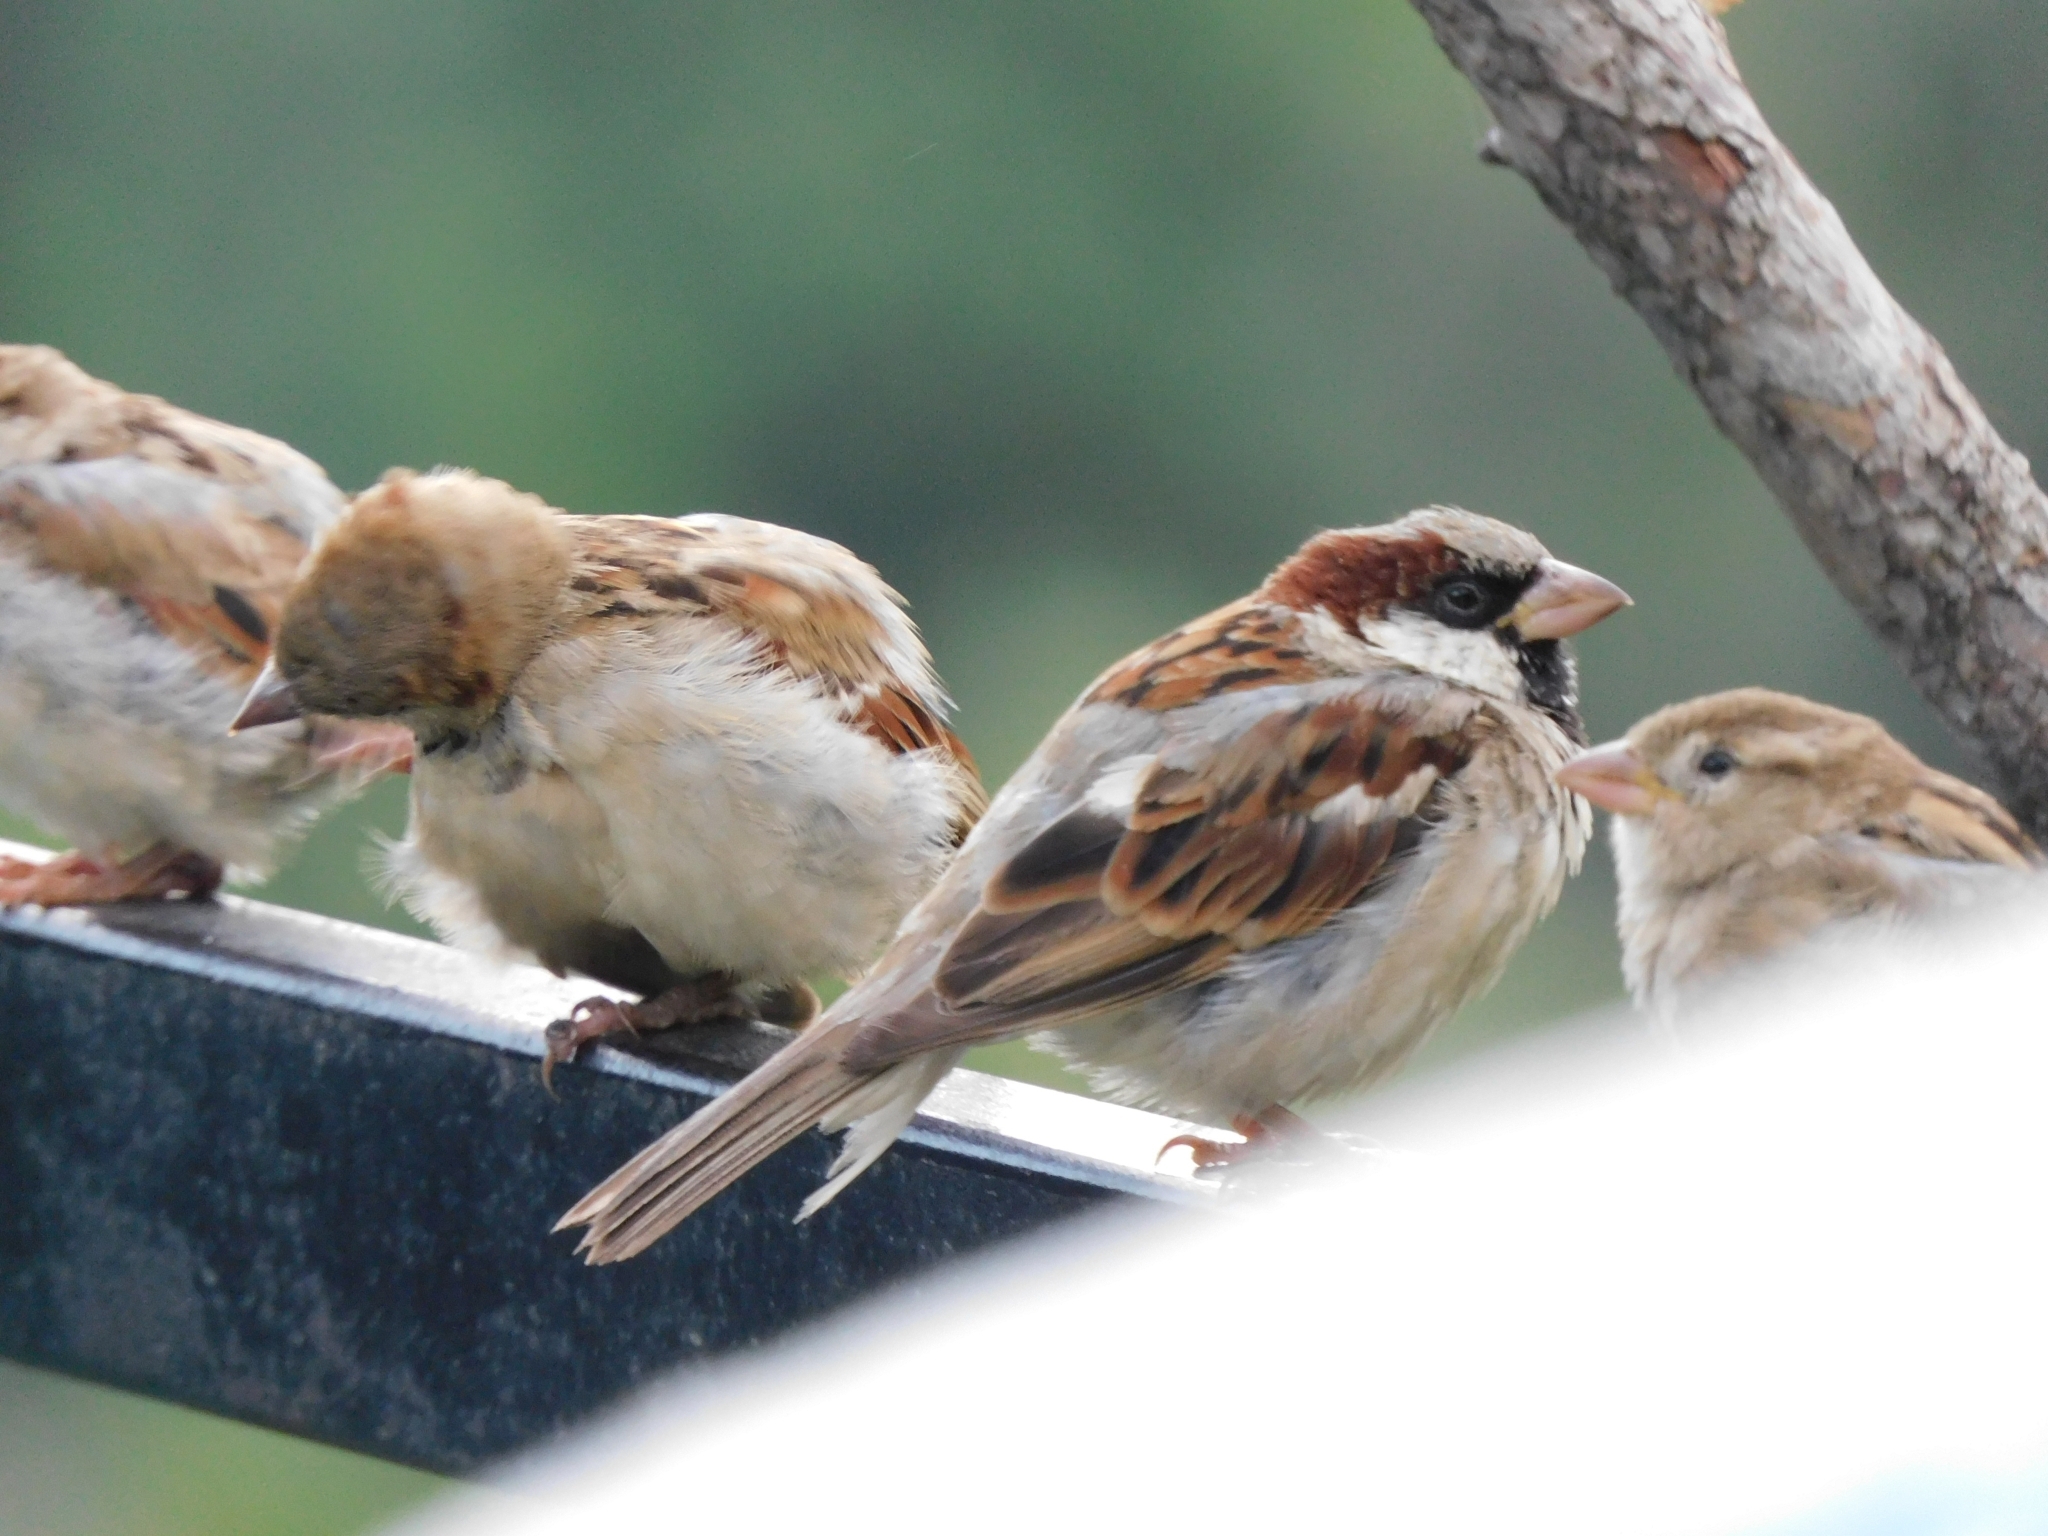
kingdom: Animalia
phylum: Chordata
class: Aves
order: Passeriformes
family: Passeridae
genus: Passer
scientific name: Passer domesticus
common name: House sparrow
